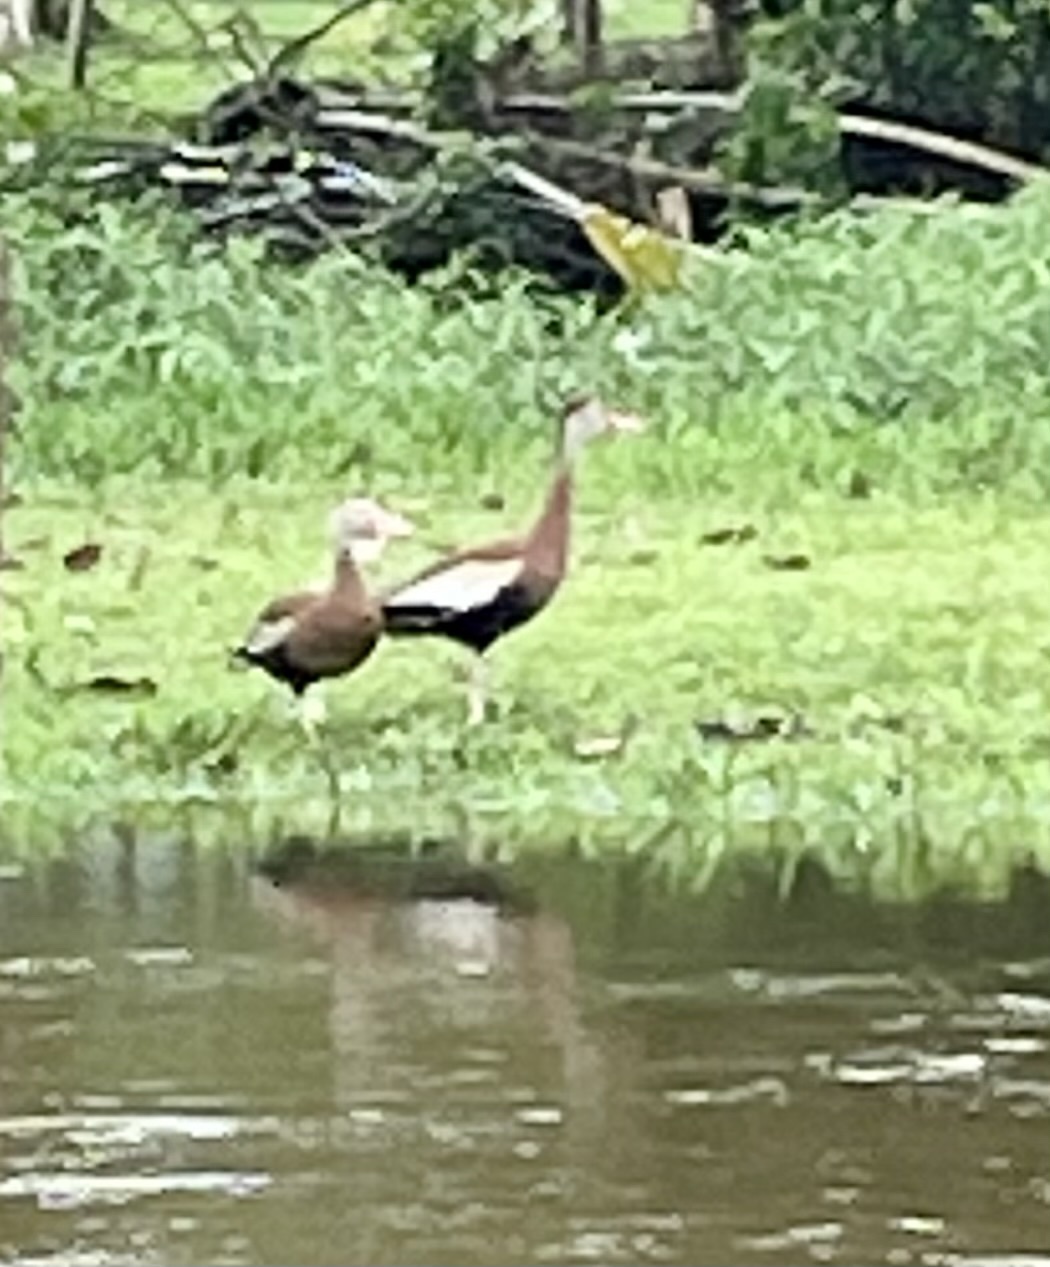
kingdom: Animalia
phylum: Chordata
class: Aves
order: Anseriformes
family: Anatidae
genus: Dendrocygna
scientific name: Dendrocygna autumnalis
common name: Black-bellied whistling duck
